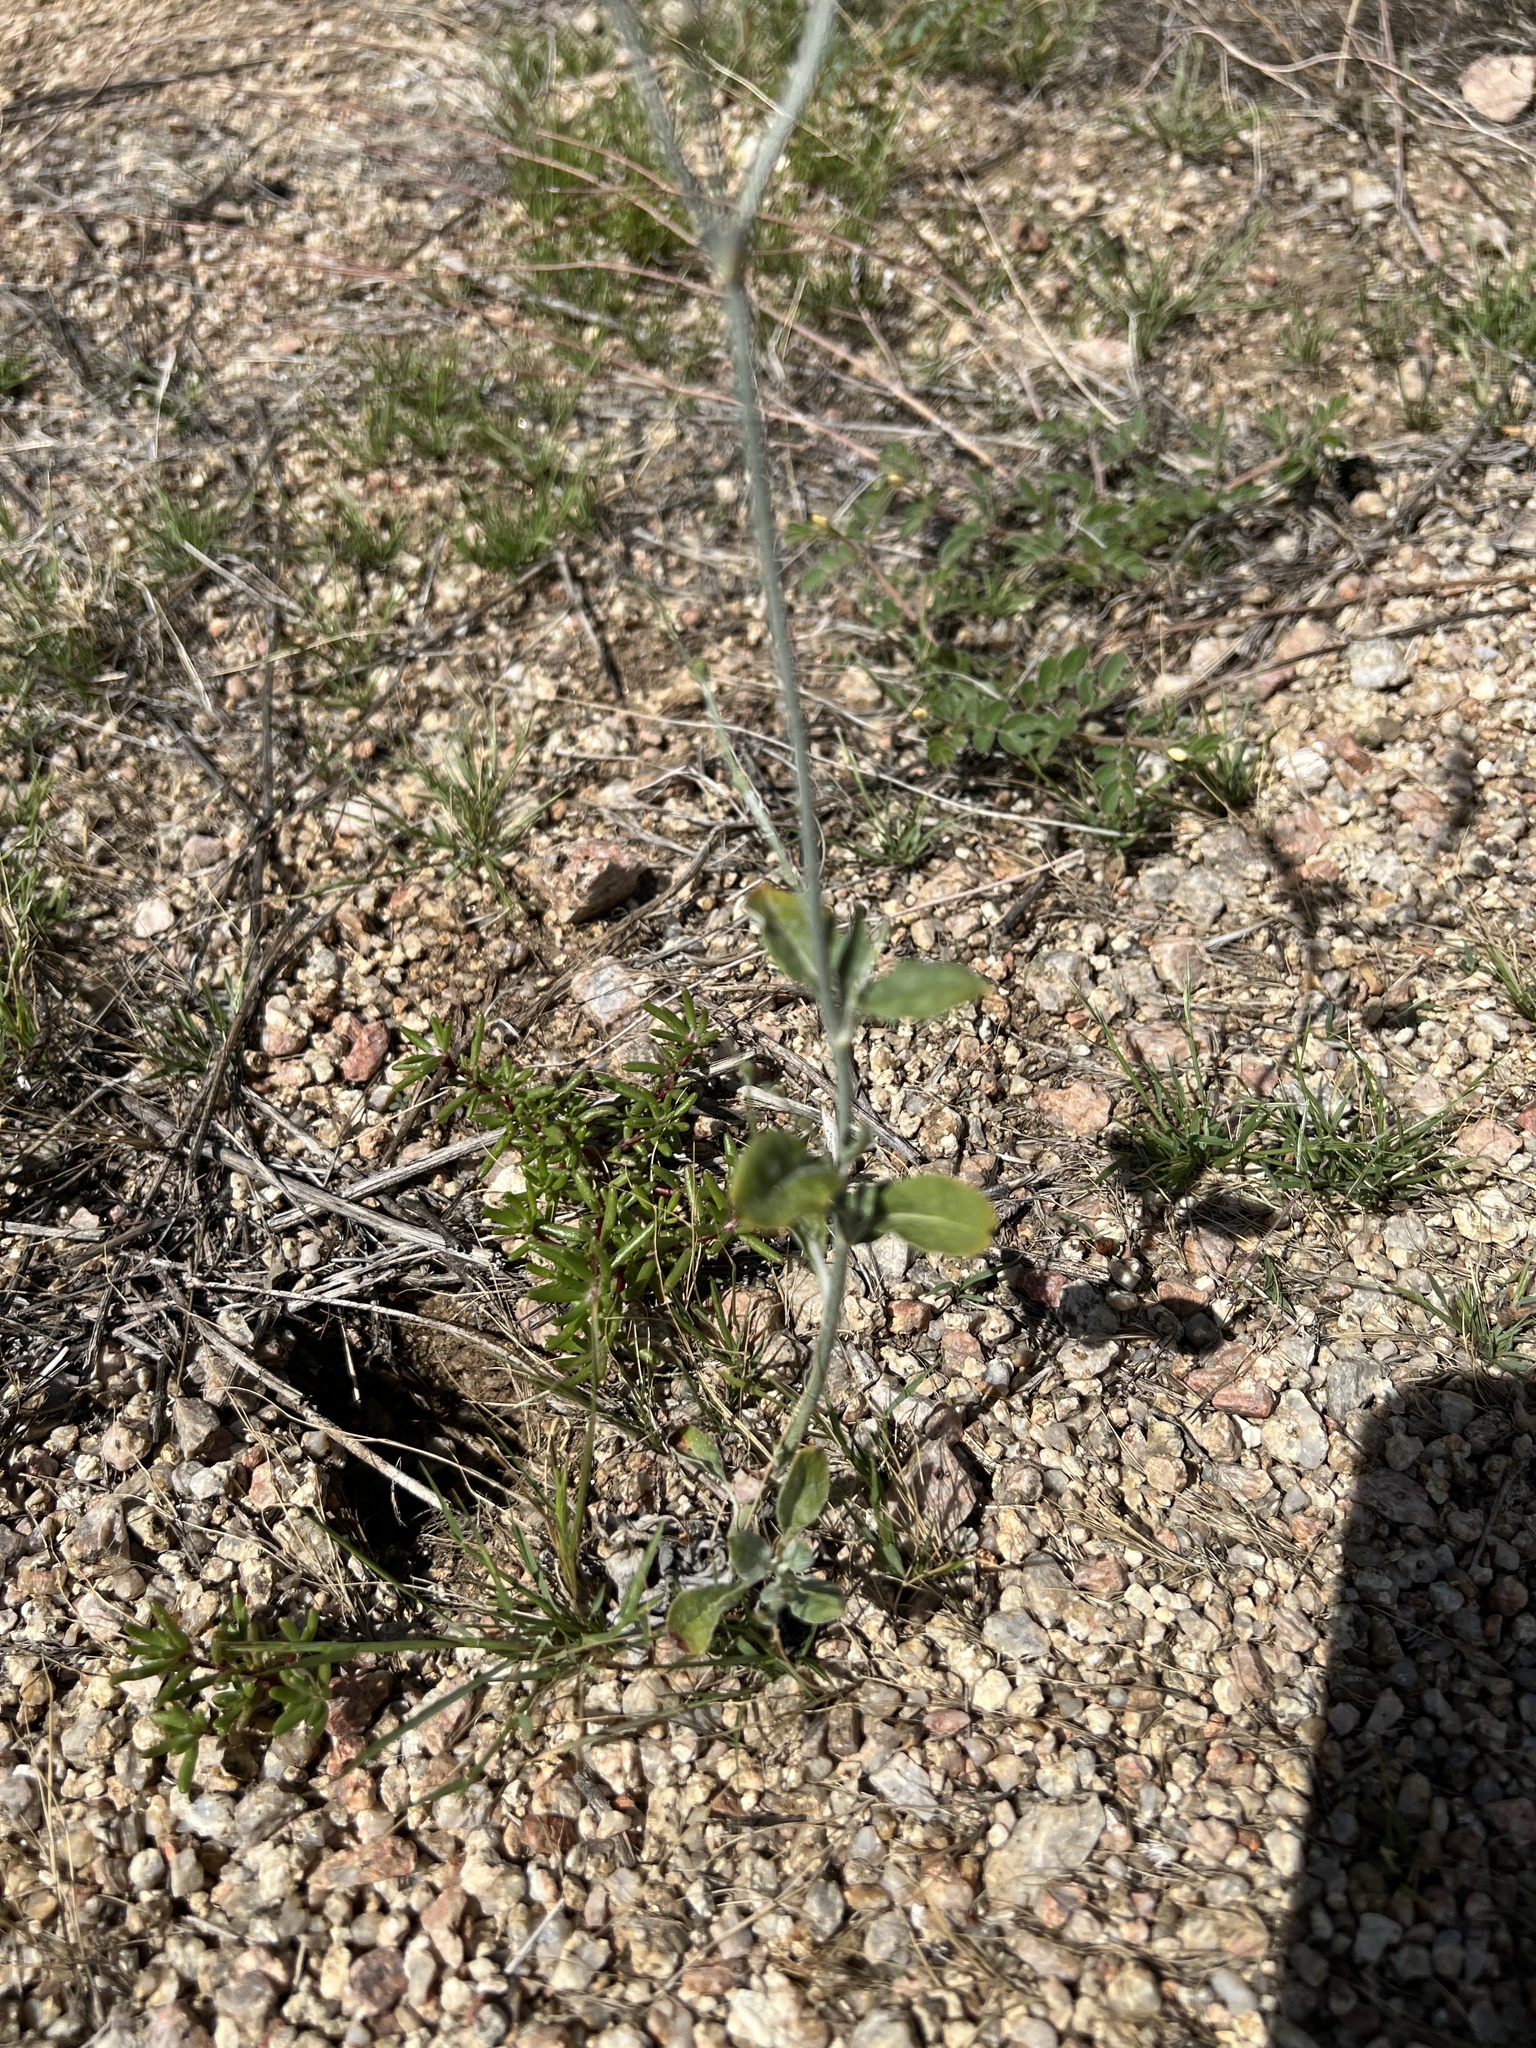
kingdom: Plantae
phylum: Tracheophyta
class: Magnoliopsida
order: Caryophyllales
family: Polygonaceae
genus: Eriogonum
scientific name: Eriogonum polycladon
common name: Sorrel wild buckwheat
